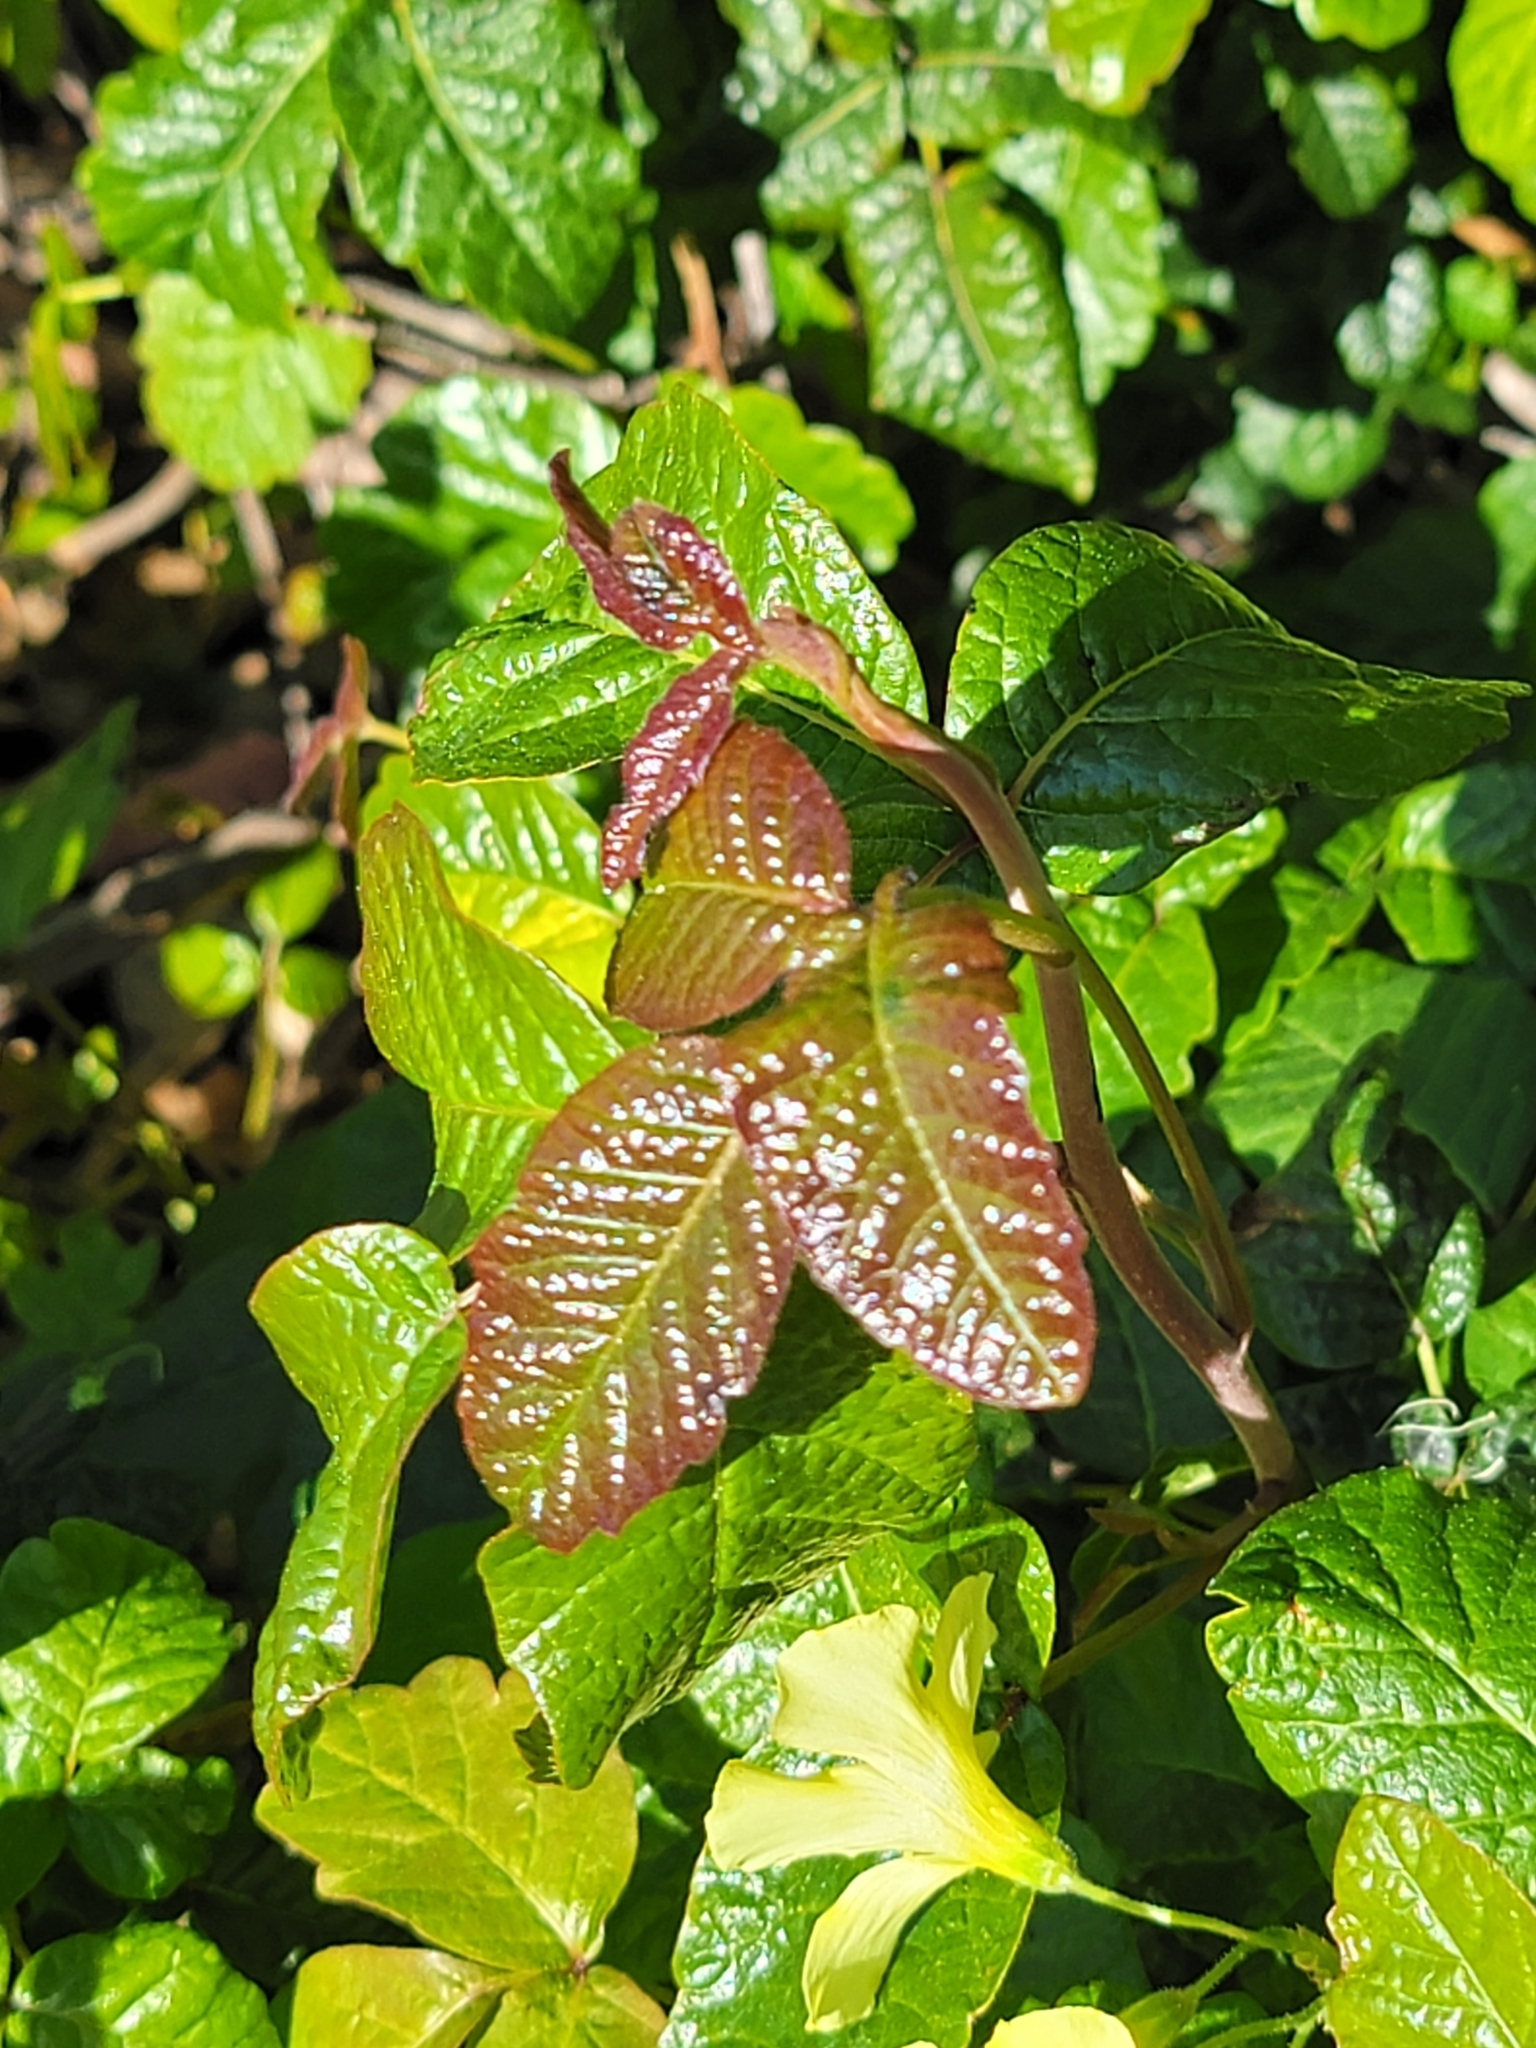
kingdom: Plantae
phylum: Tracheophyta
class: Magnoliopsida
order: Sapindales
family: Anacardiaceae
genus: Toxicodendron
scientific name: Toxicodendron diversilobum
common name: Pacific poison-oak
